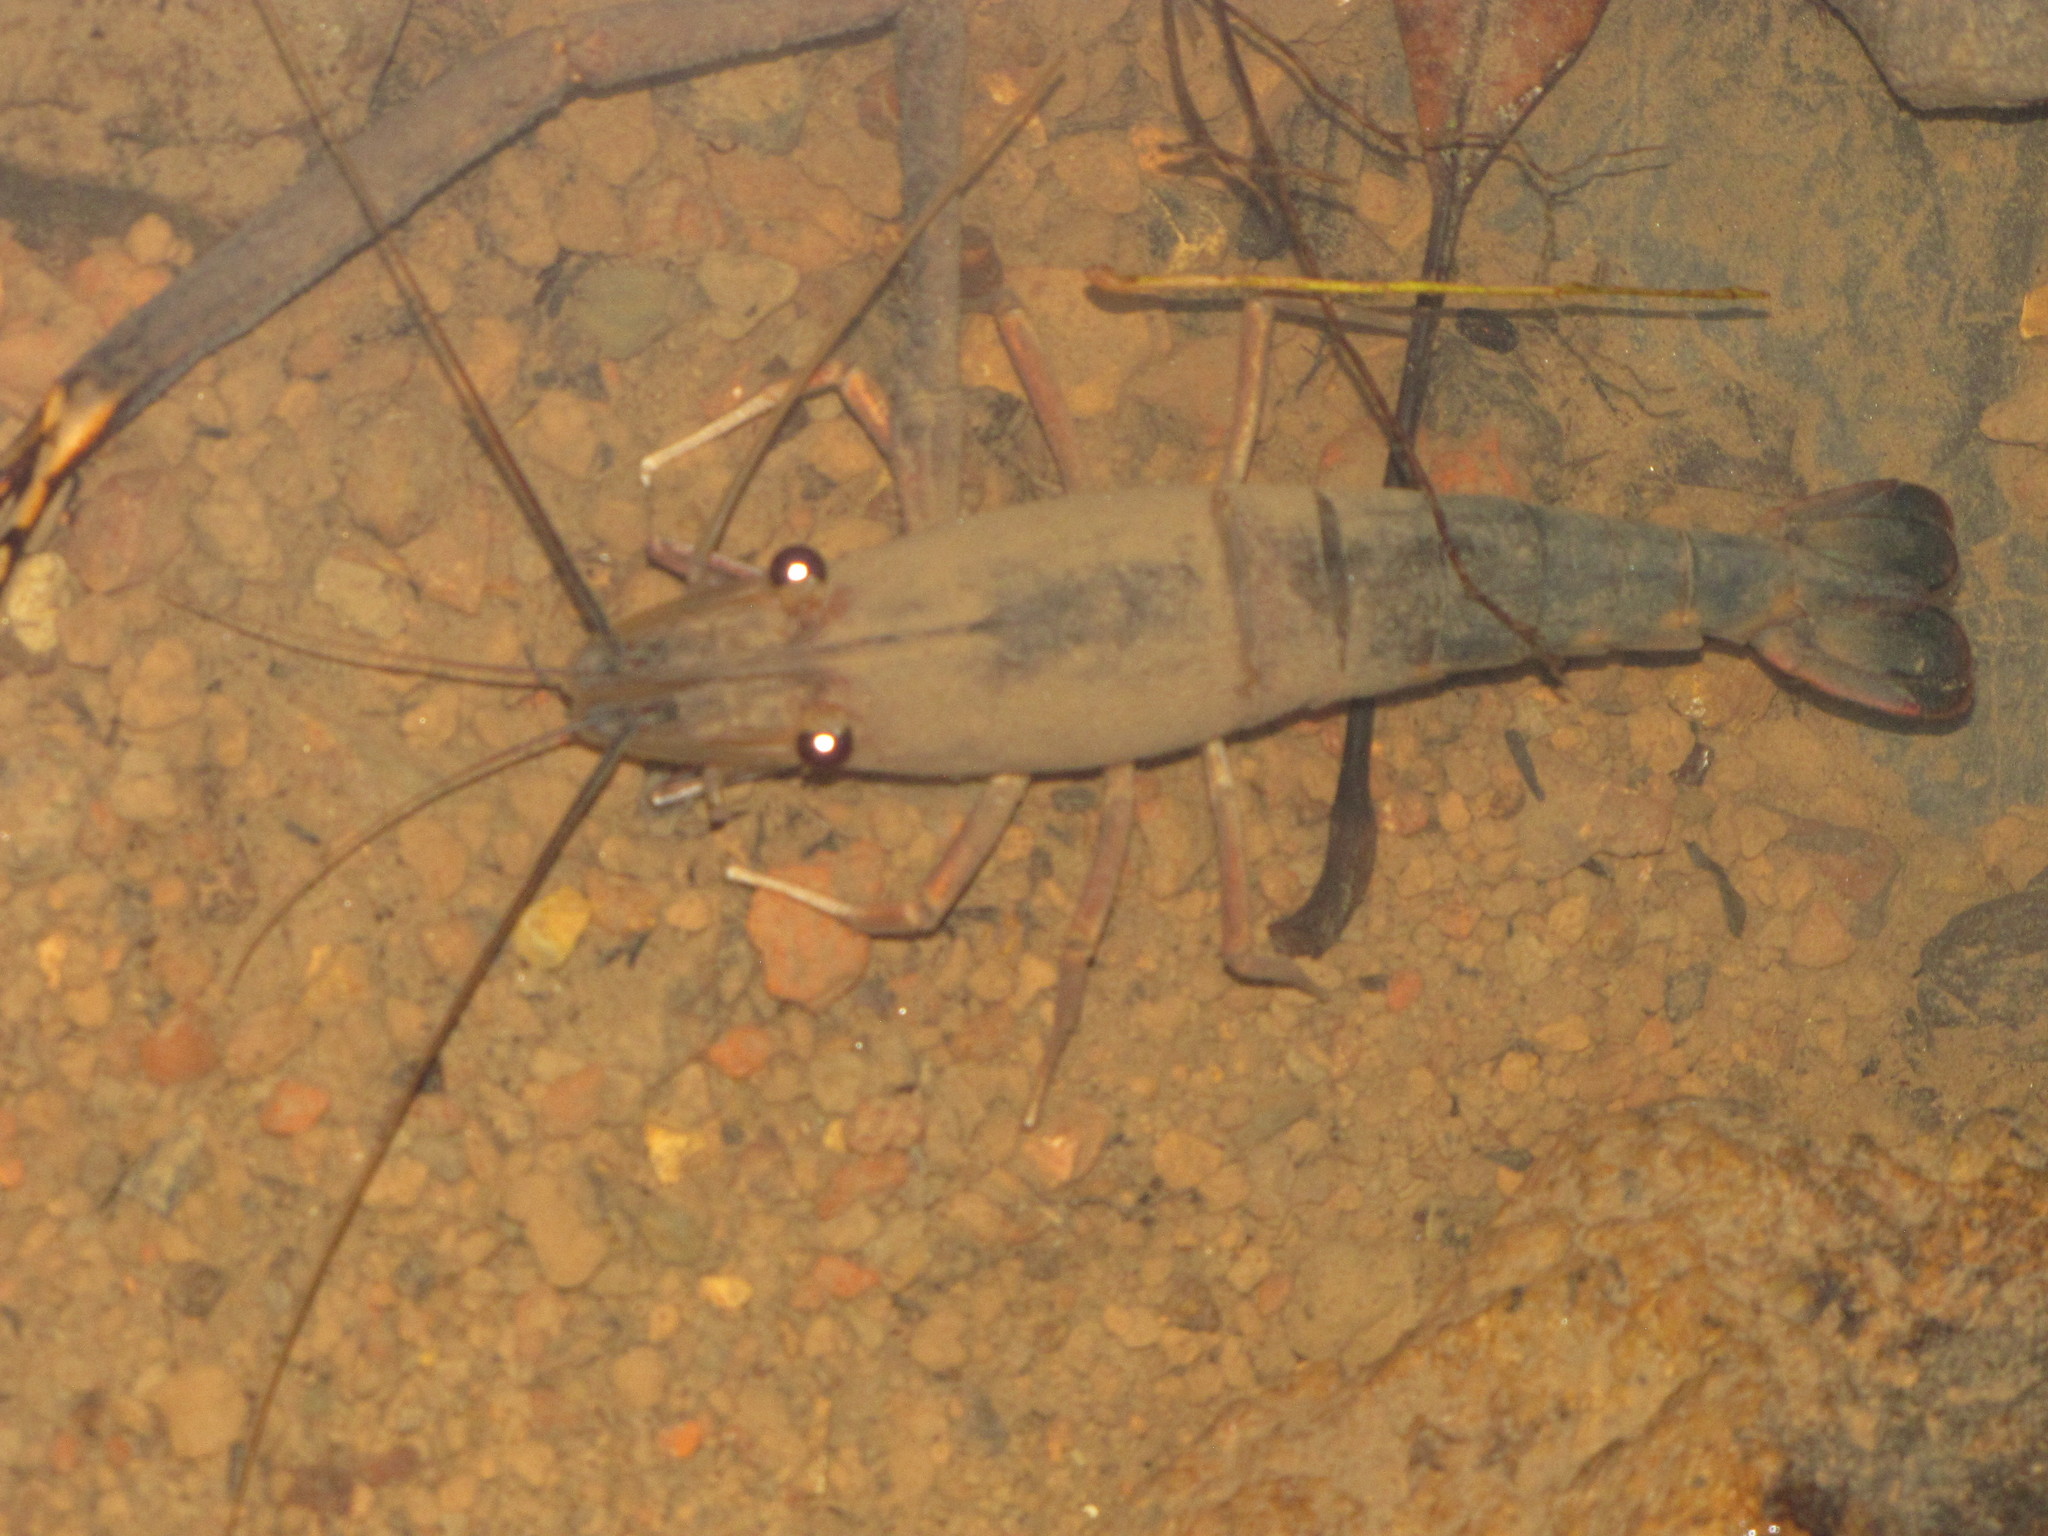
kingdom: Animalia
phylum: Arthropoda
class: Malacostraca
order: Decapoda
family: Palaemonidae
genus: Macrobrachium
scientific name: Macrobrachium lar
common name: Monkey river prawn
